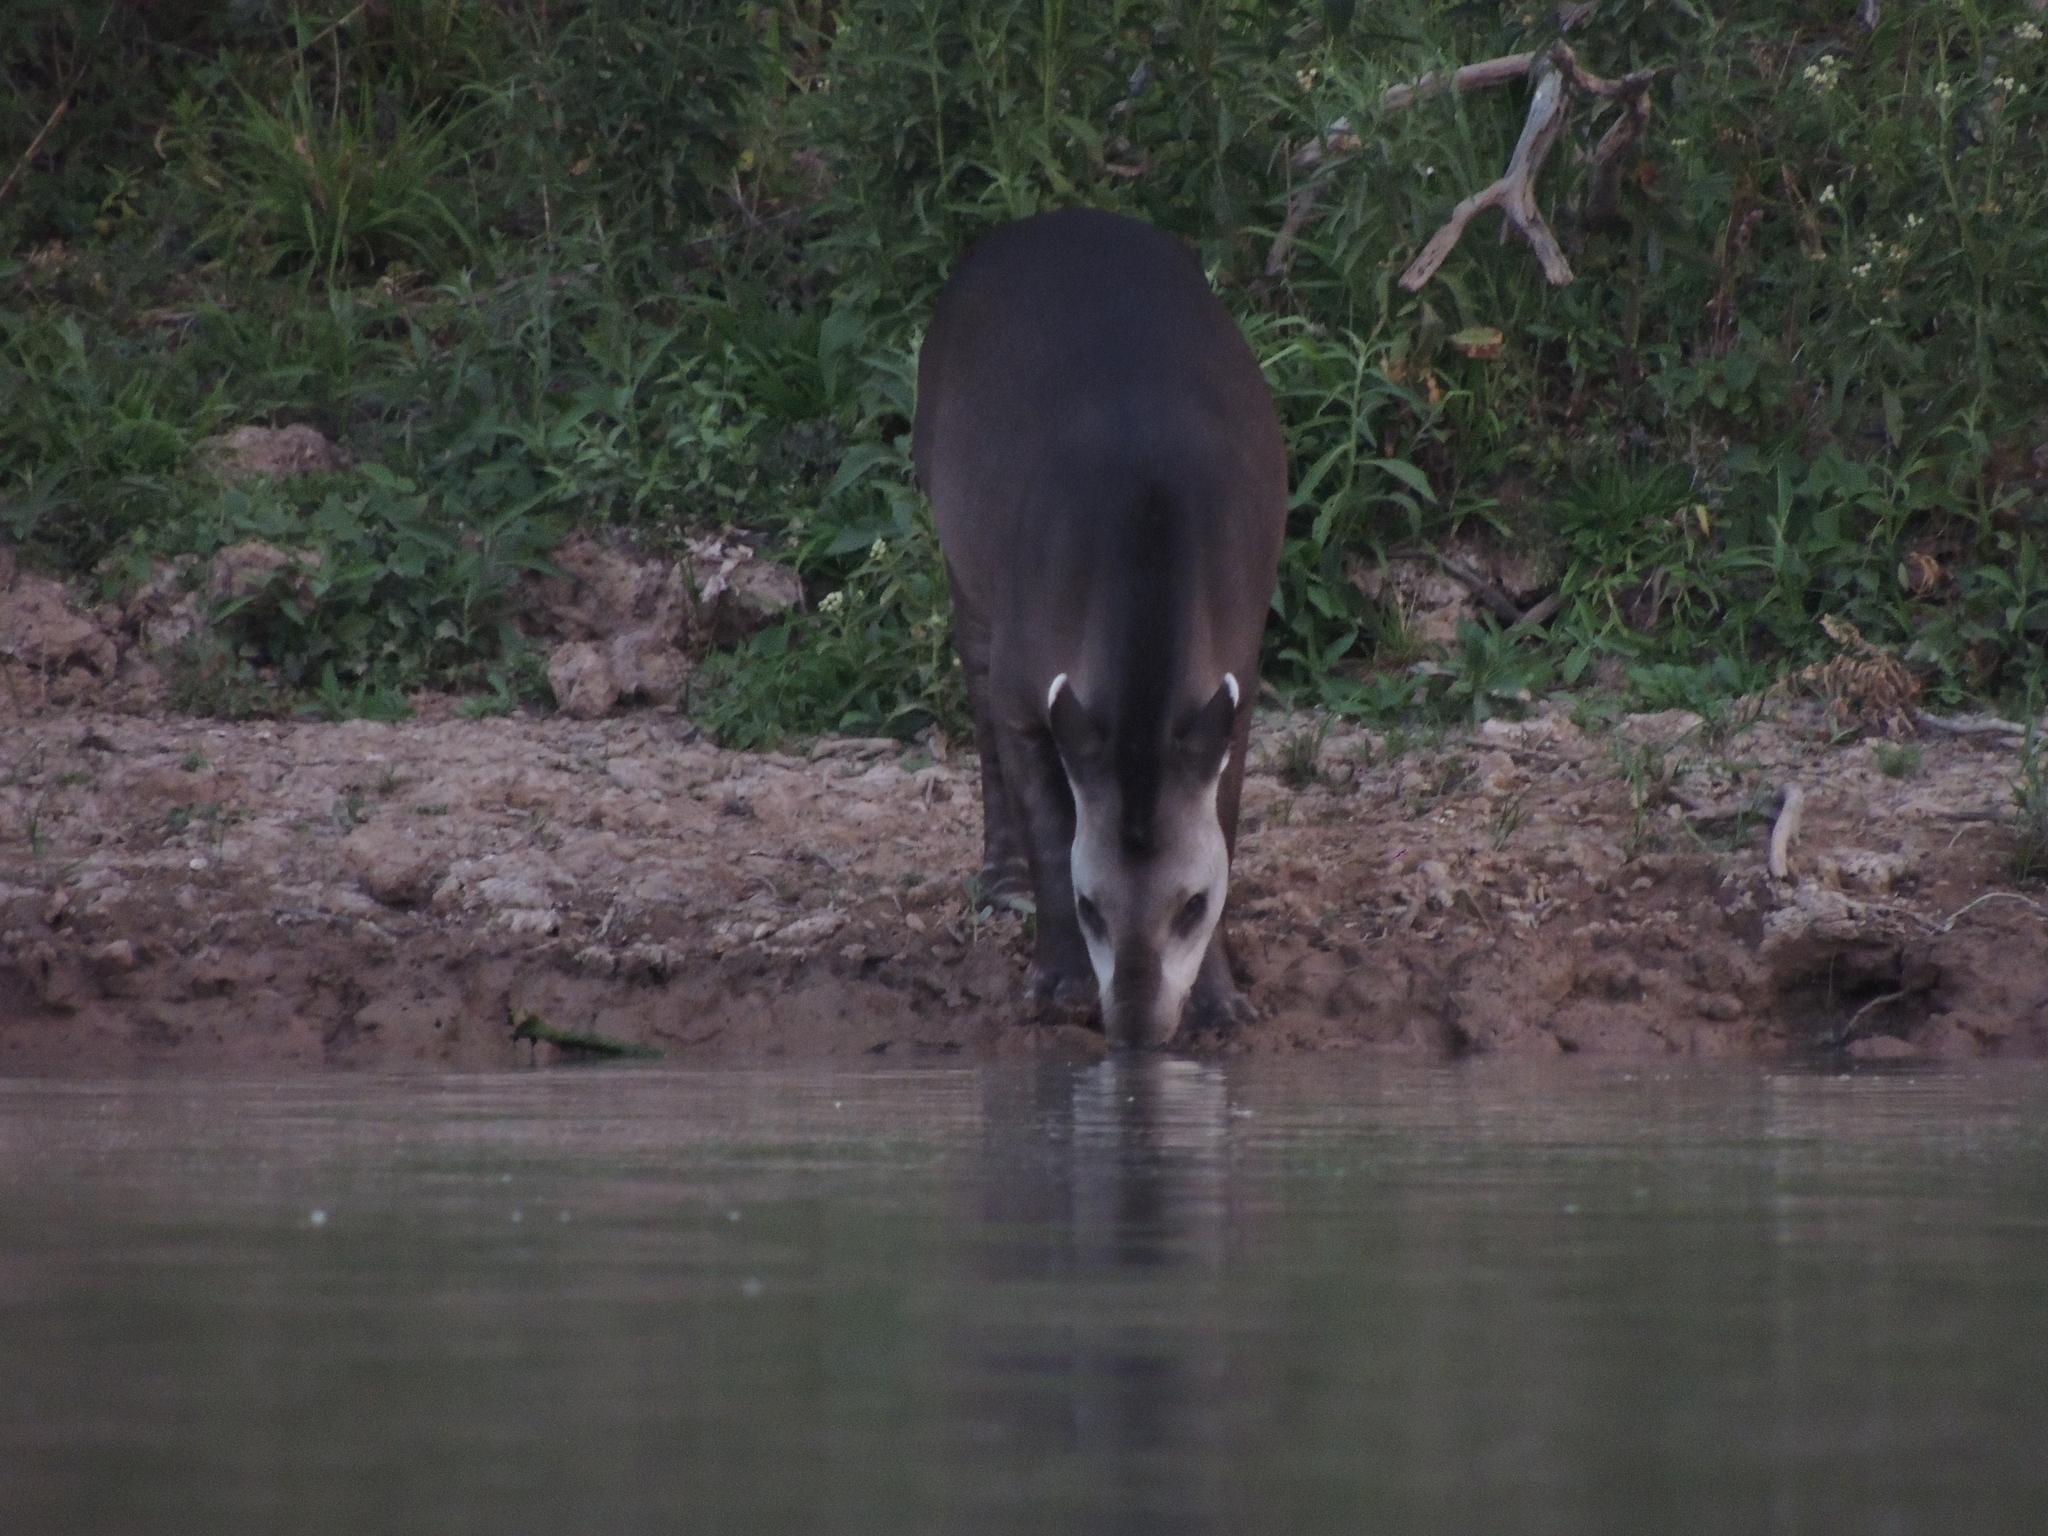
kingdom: Animalia
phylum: Chordata
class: Mammalia
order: Perissodactyla
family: Tapiridae
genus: Tapirus
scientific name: Tapirus terrestris
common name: Brazilian tapir
